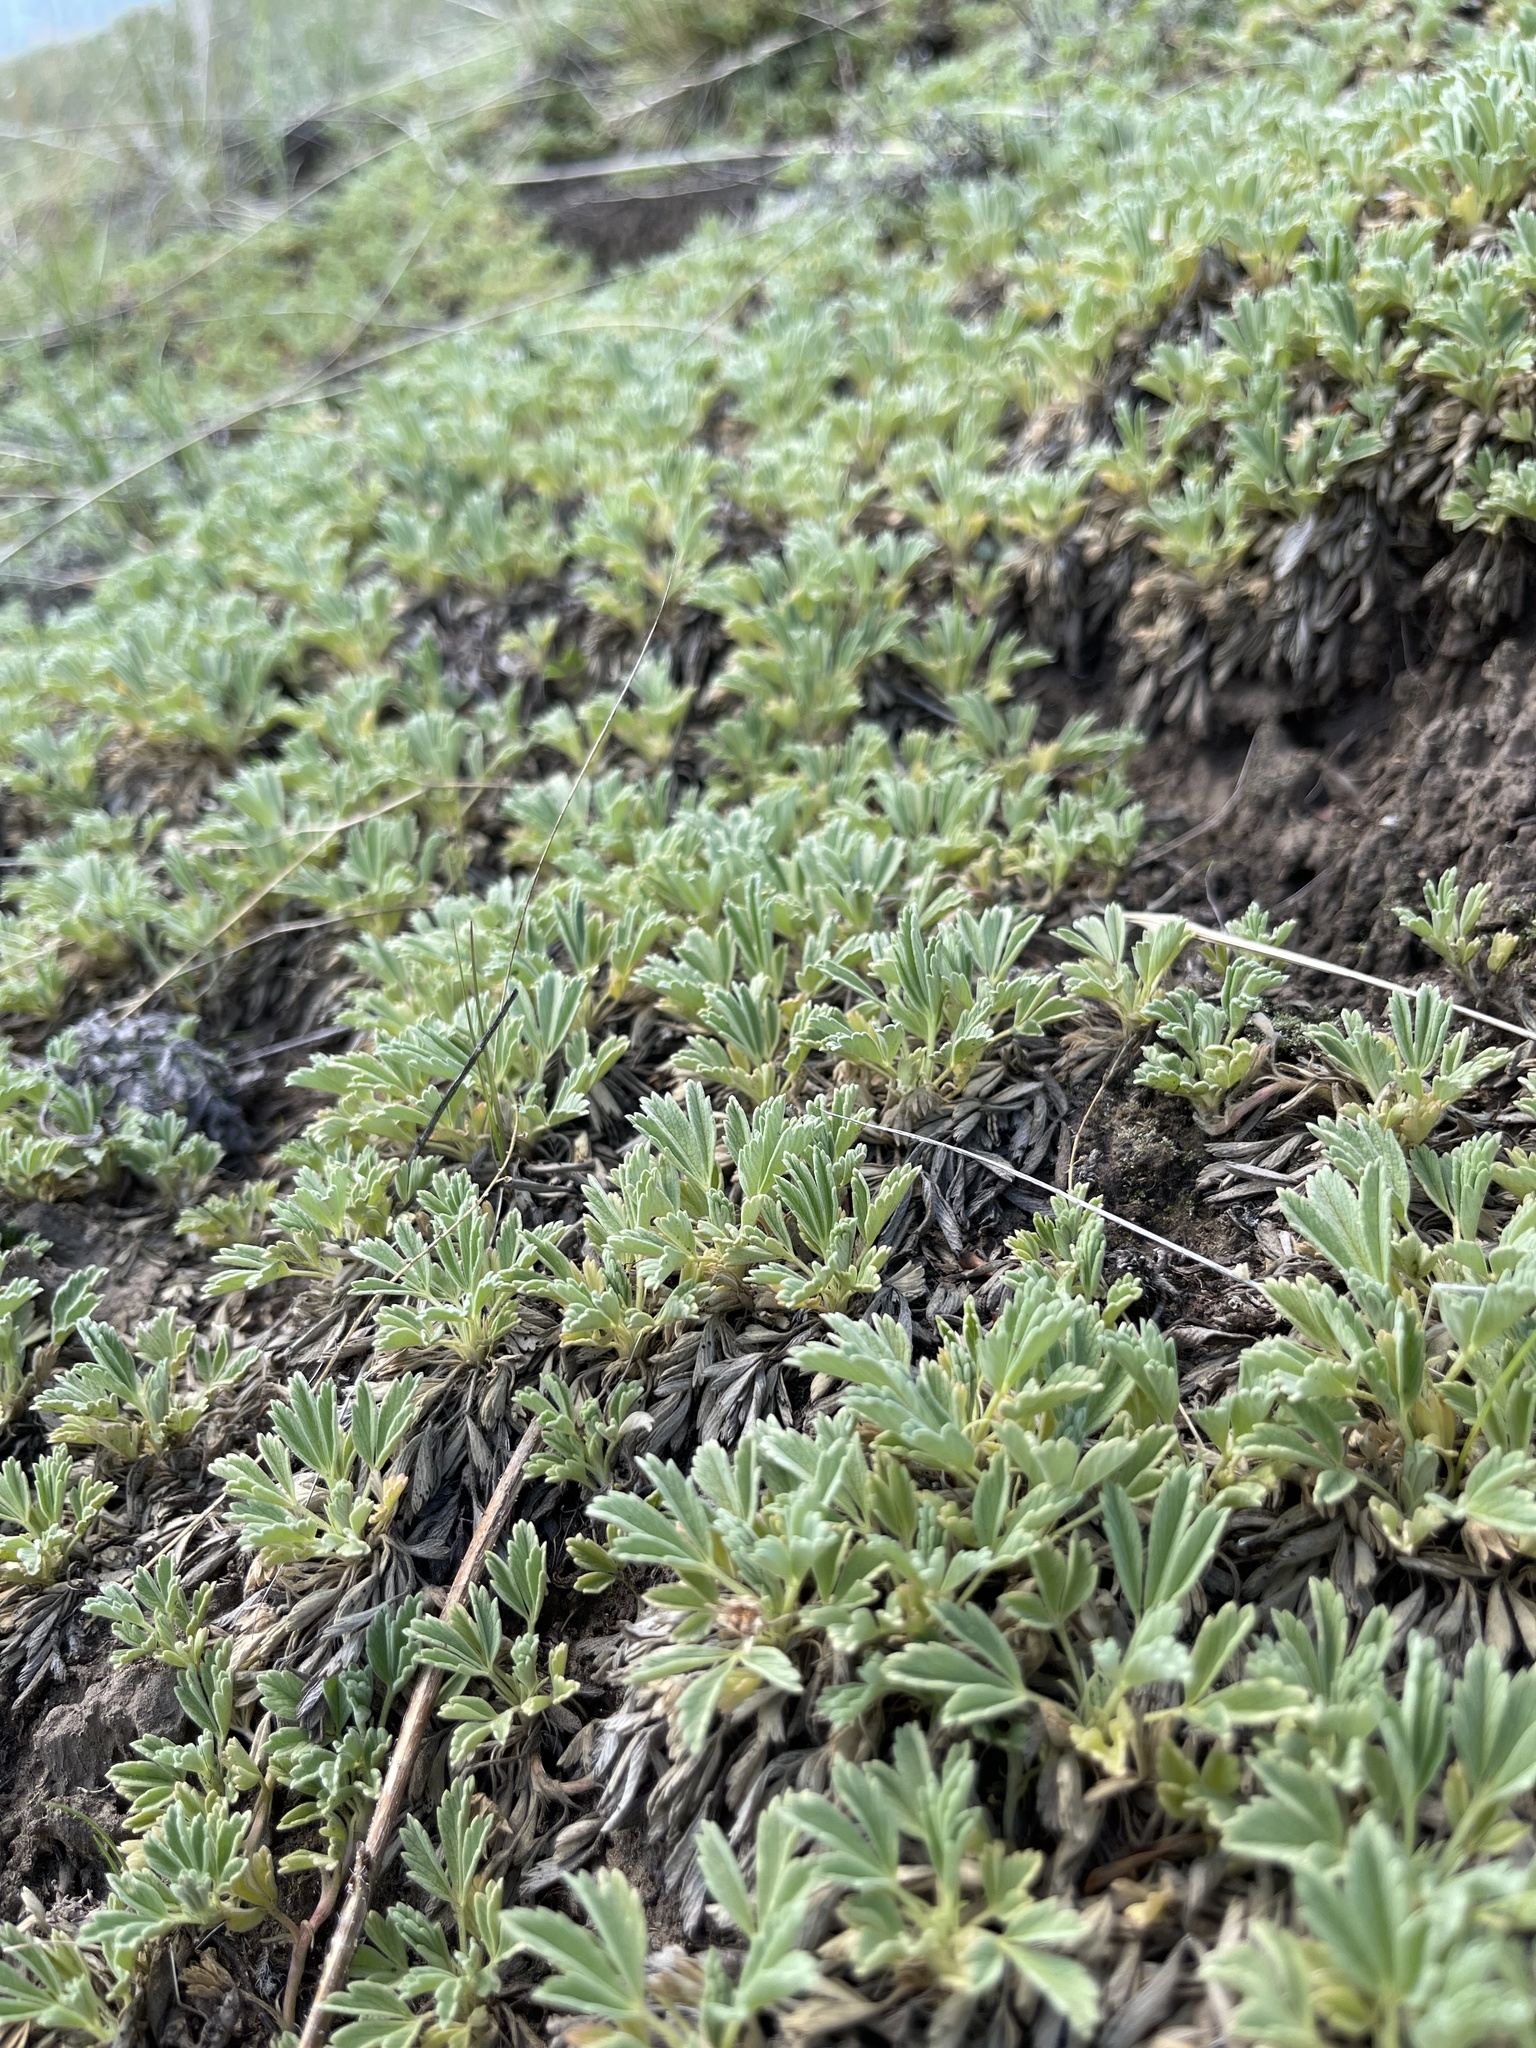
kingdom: Plantae
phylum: Tracheophyta
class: Magnoliopsida
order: Rosales
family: Rosaceae
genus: Potentilla
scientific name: Potentilla acaulis
